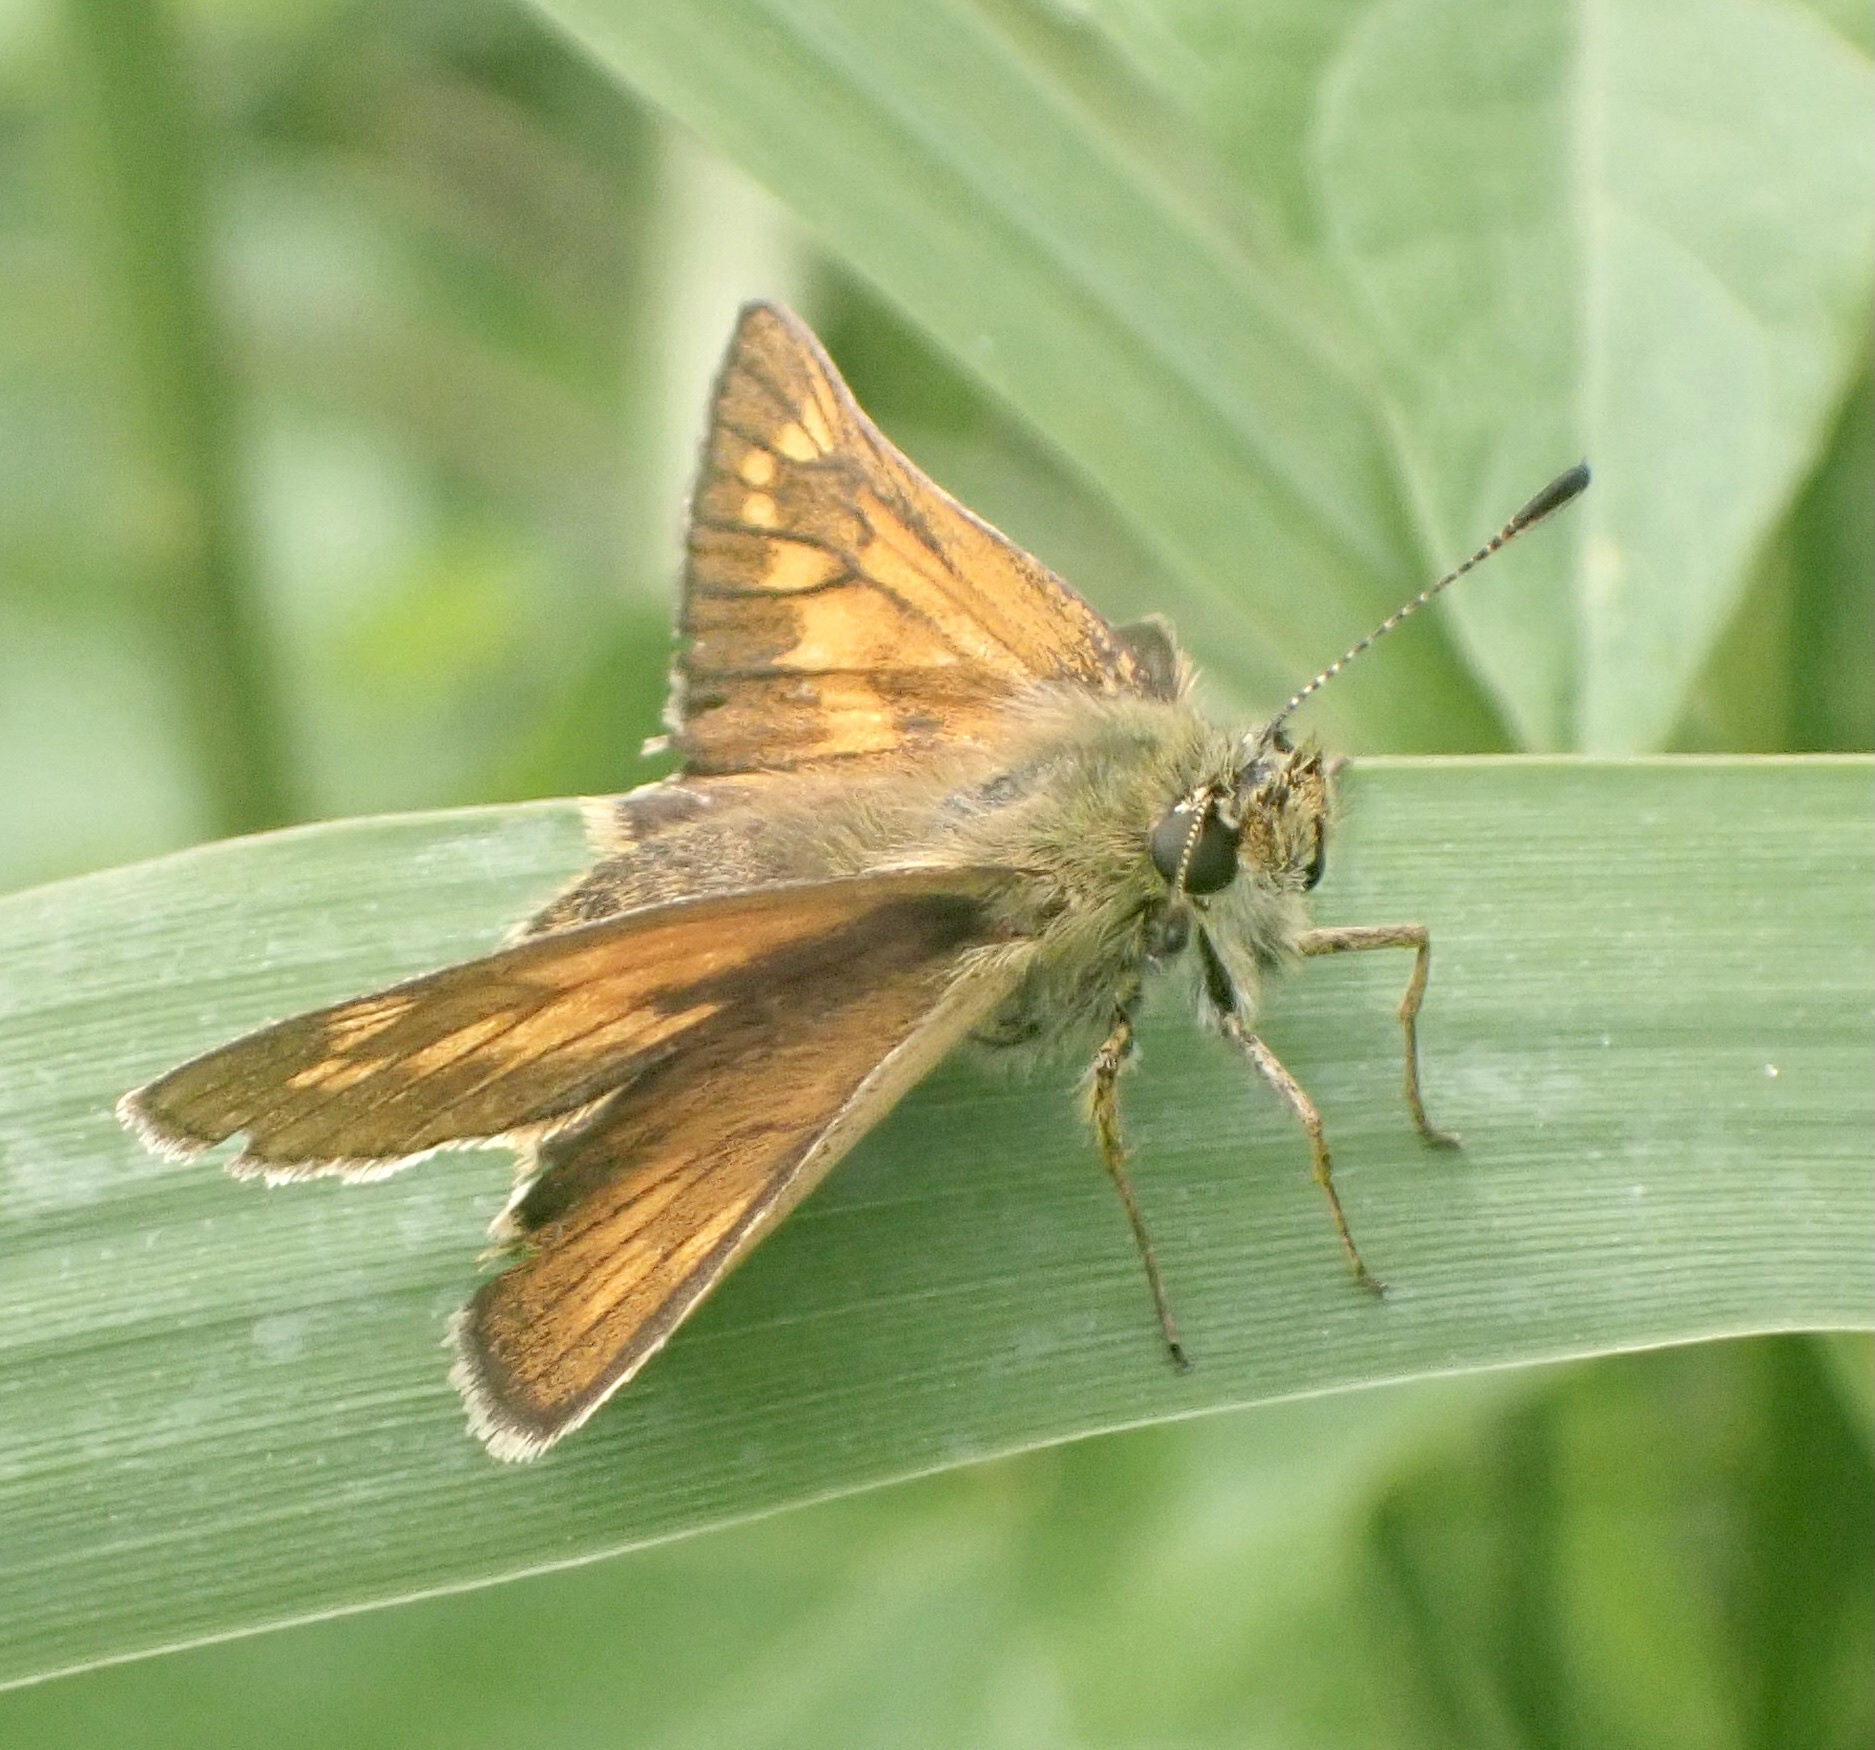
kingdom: Animalia
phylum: Arthropoda
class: Insecta
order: Lepidoptera
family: Hesperiidae
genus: Ochlodes
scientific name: Ochlodes venata
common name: Large skipper
